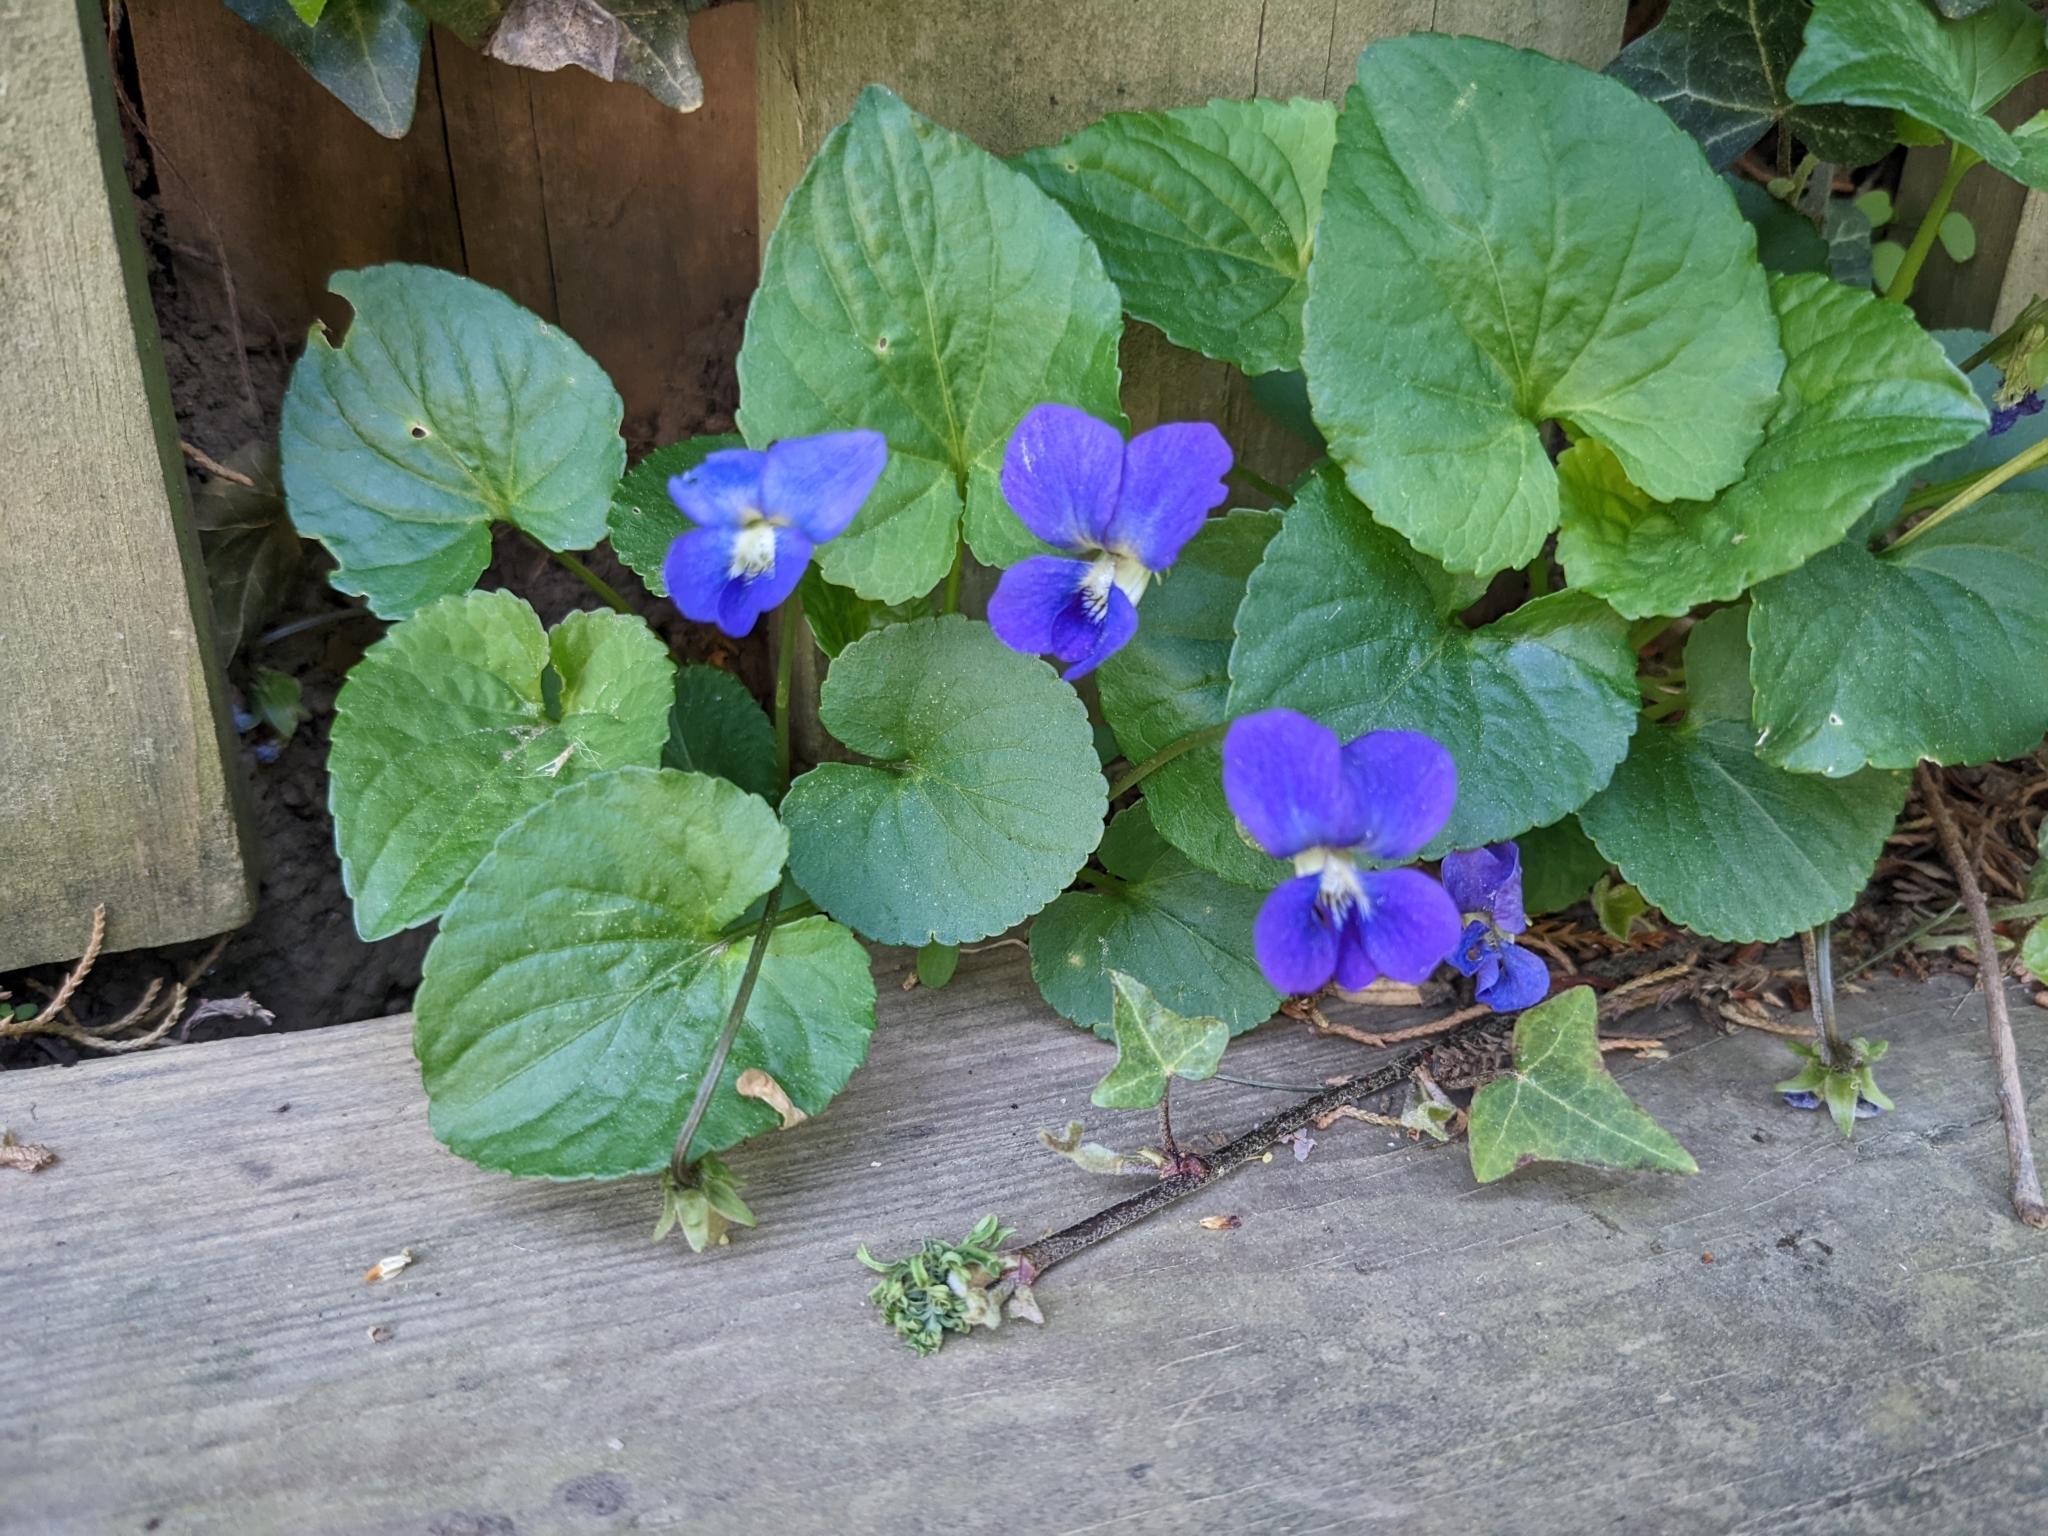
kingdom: Plantae
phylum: Tracheophyta
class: Magnoliopsida
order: Malpighiales
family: Violaceae
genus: Viola
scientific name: Viola sororia
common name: Dooryard violet
